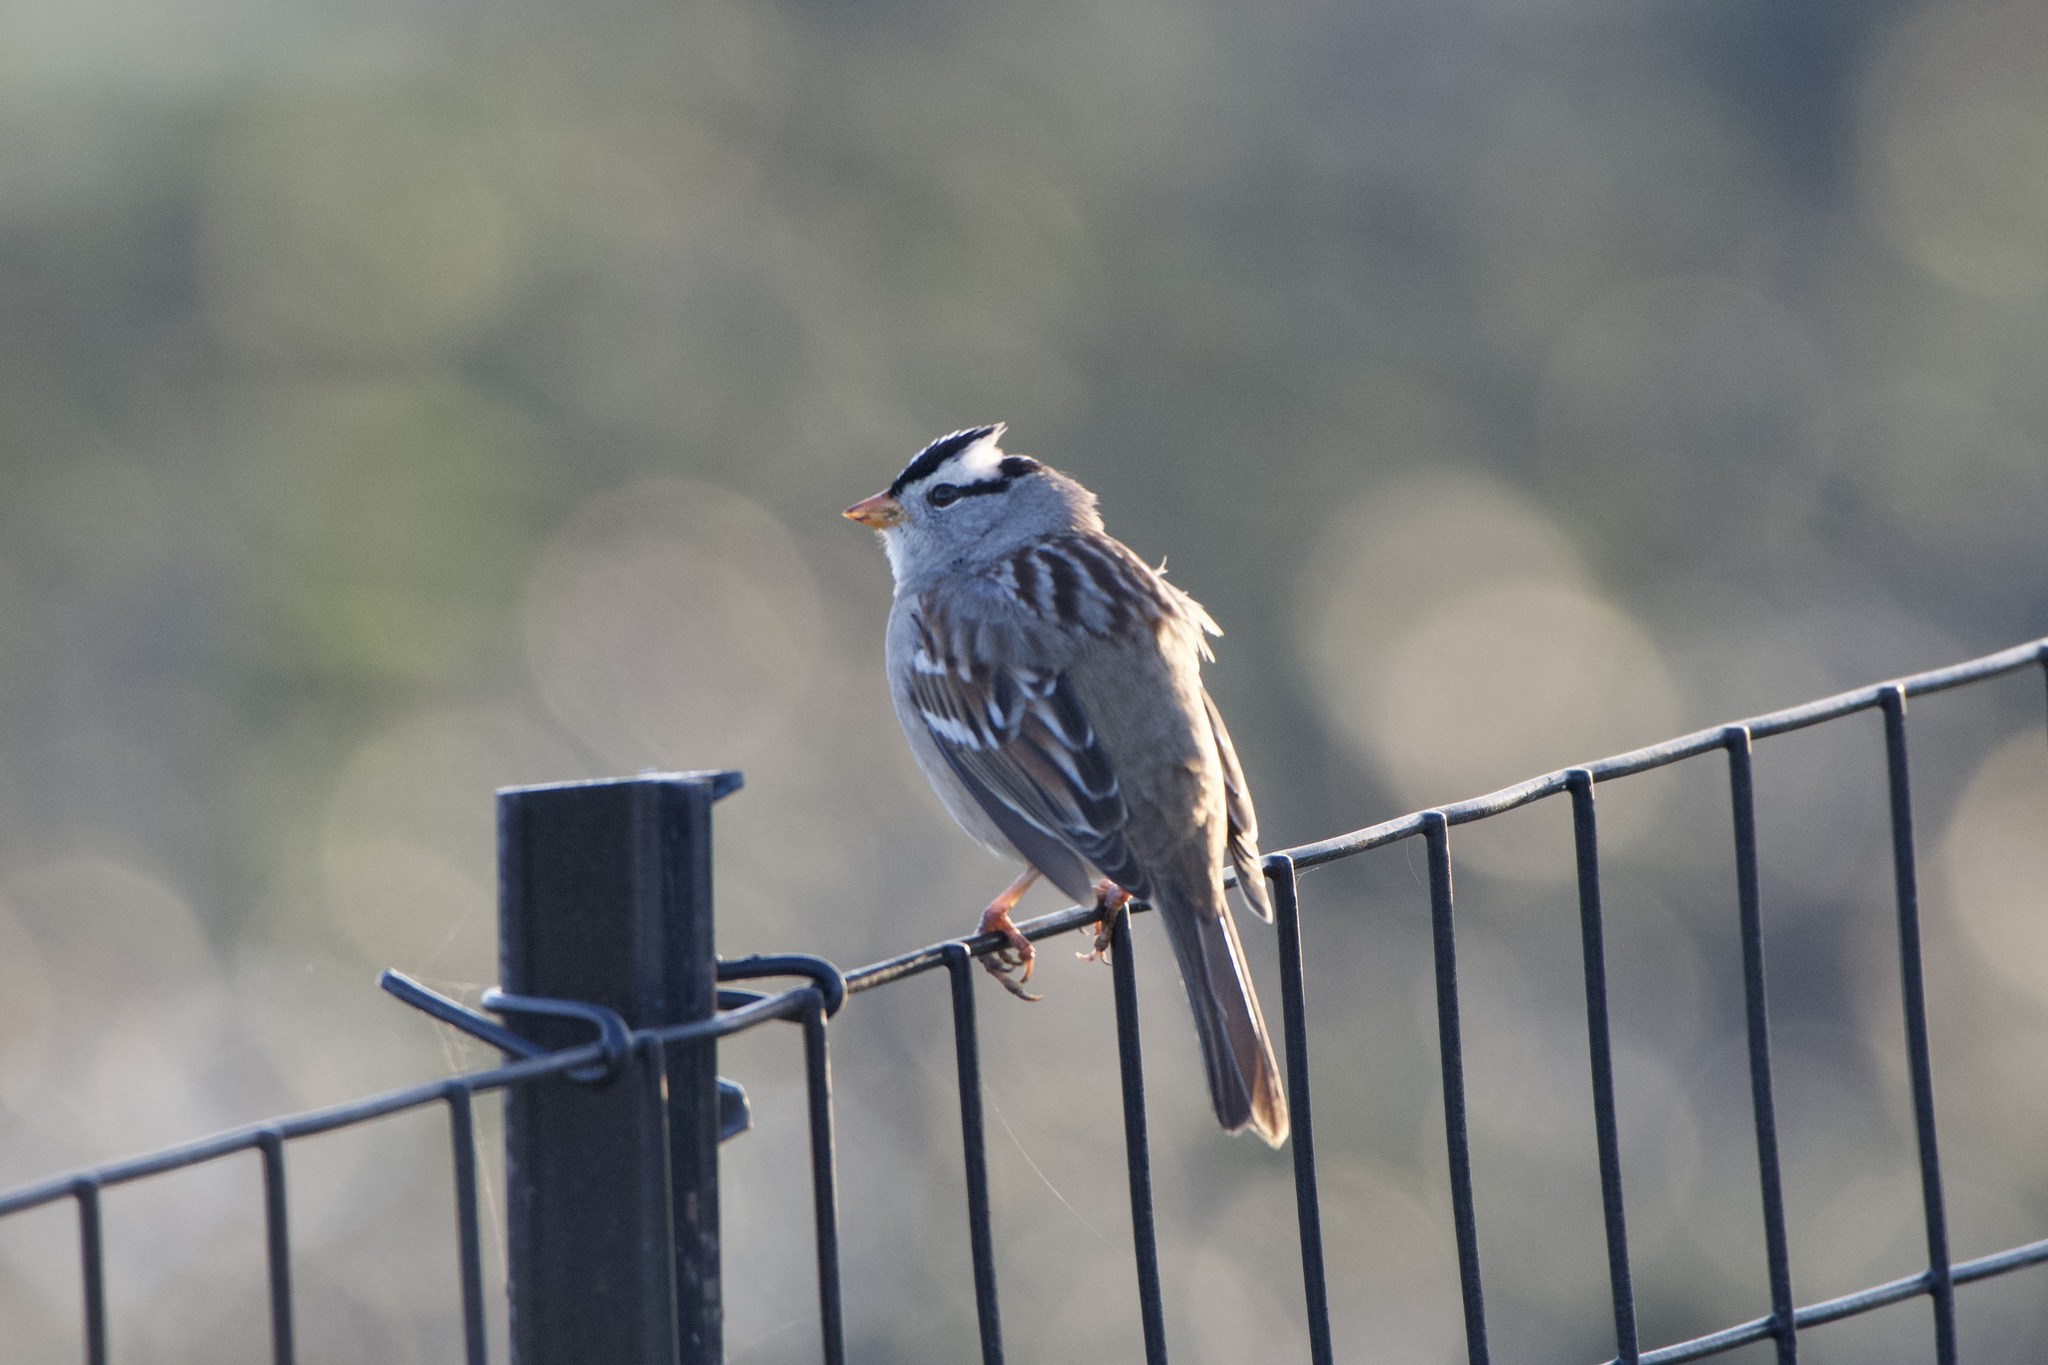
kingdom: Animalia
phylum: Chordata
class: Aves
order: Passeriformes
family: Passerellidae
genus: Zonotrichia
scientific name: Zonotrichia leucophrys
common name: White-crowned sparrow
